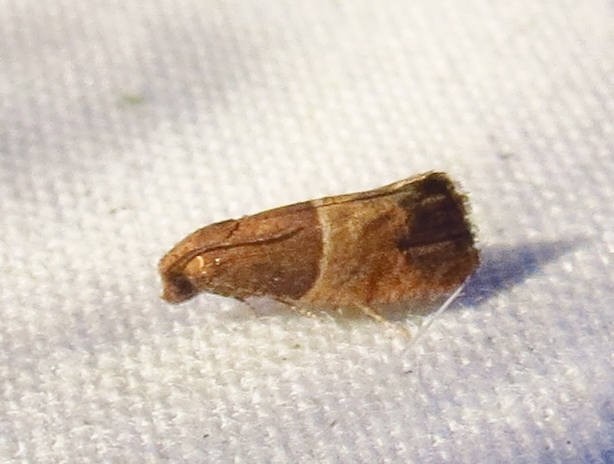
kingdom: Animalia
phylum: Arthropoda
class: Insecta
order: Lepidoptera
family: Tortricidae
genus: Larisa
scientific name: Larisa subsolana
